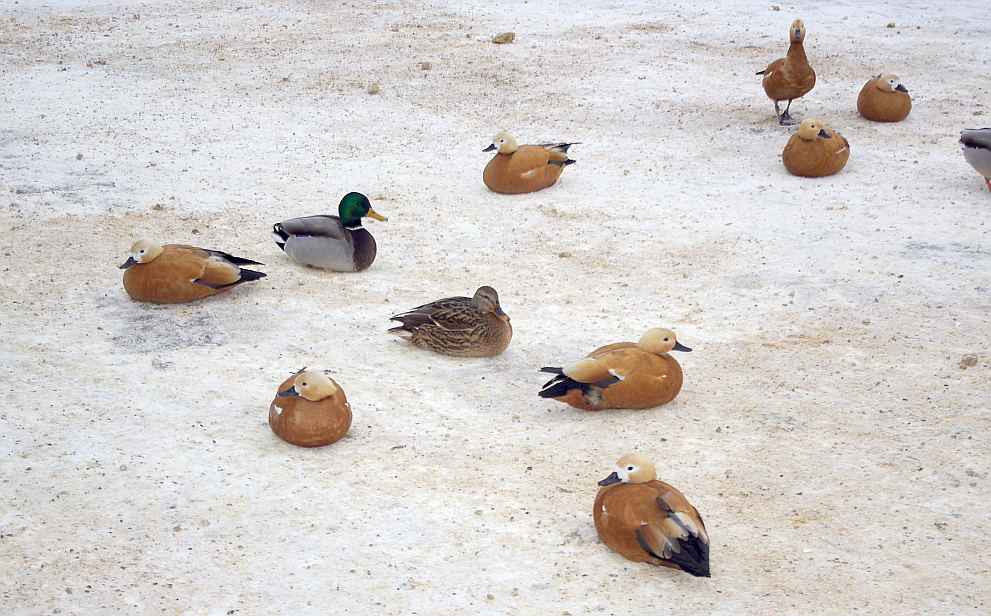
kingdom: Animalia
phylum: Chordata
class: Aves
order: Anseriformes
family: Anatidae
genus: Tadorna
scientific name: Tadorna ferruginea
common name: Ruddy shelduck
